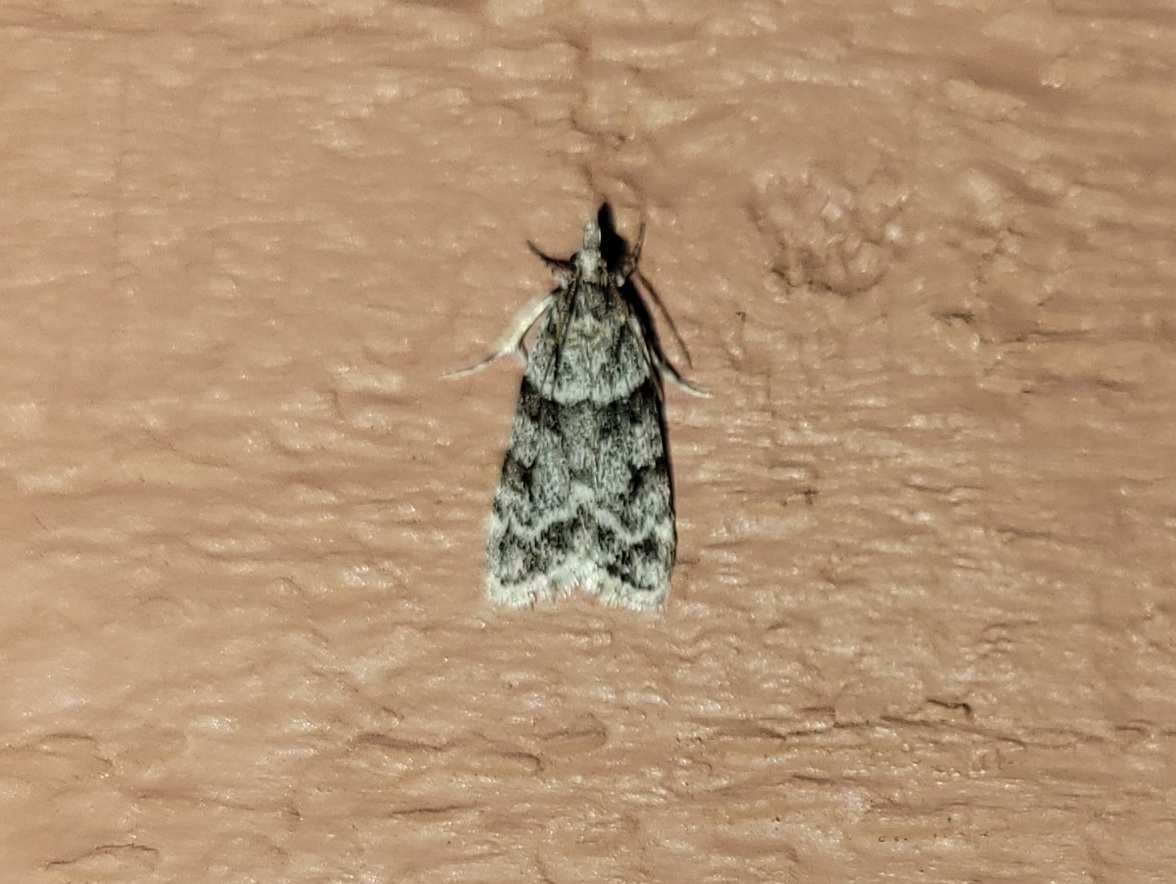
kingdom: Animalia
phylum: Arthropoda
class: Insecta
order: Lepidoptera
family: Crambidae
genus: Scoparia
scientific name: Scoparia biplagialis
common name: Double-striped scoparia moth
